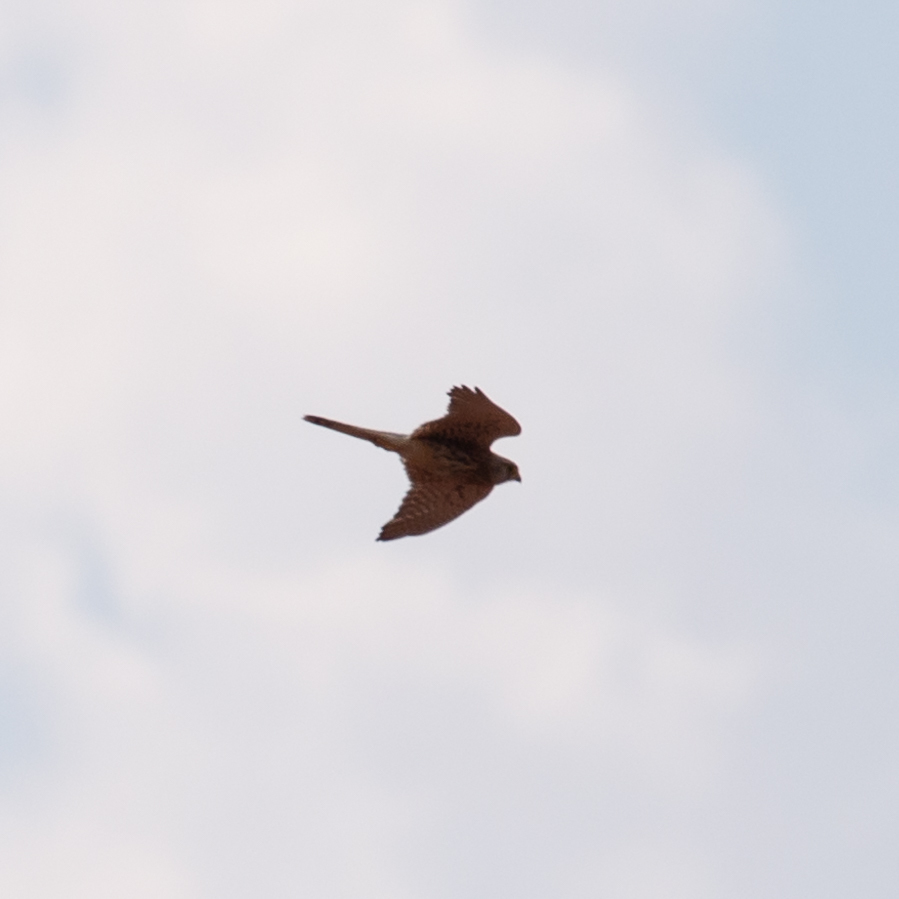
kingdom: Animalia
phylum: Chordata
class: Aves
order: Falconiformes
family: Falconidae
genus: Falco
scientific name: Falco tinnunculus
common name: Common kestrel
